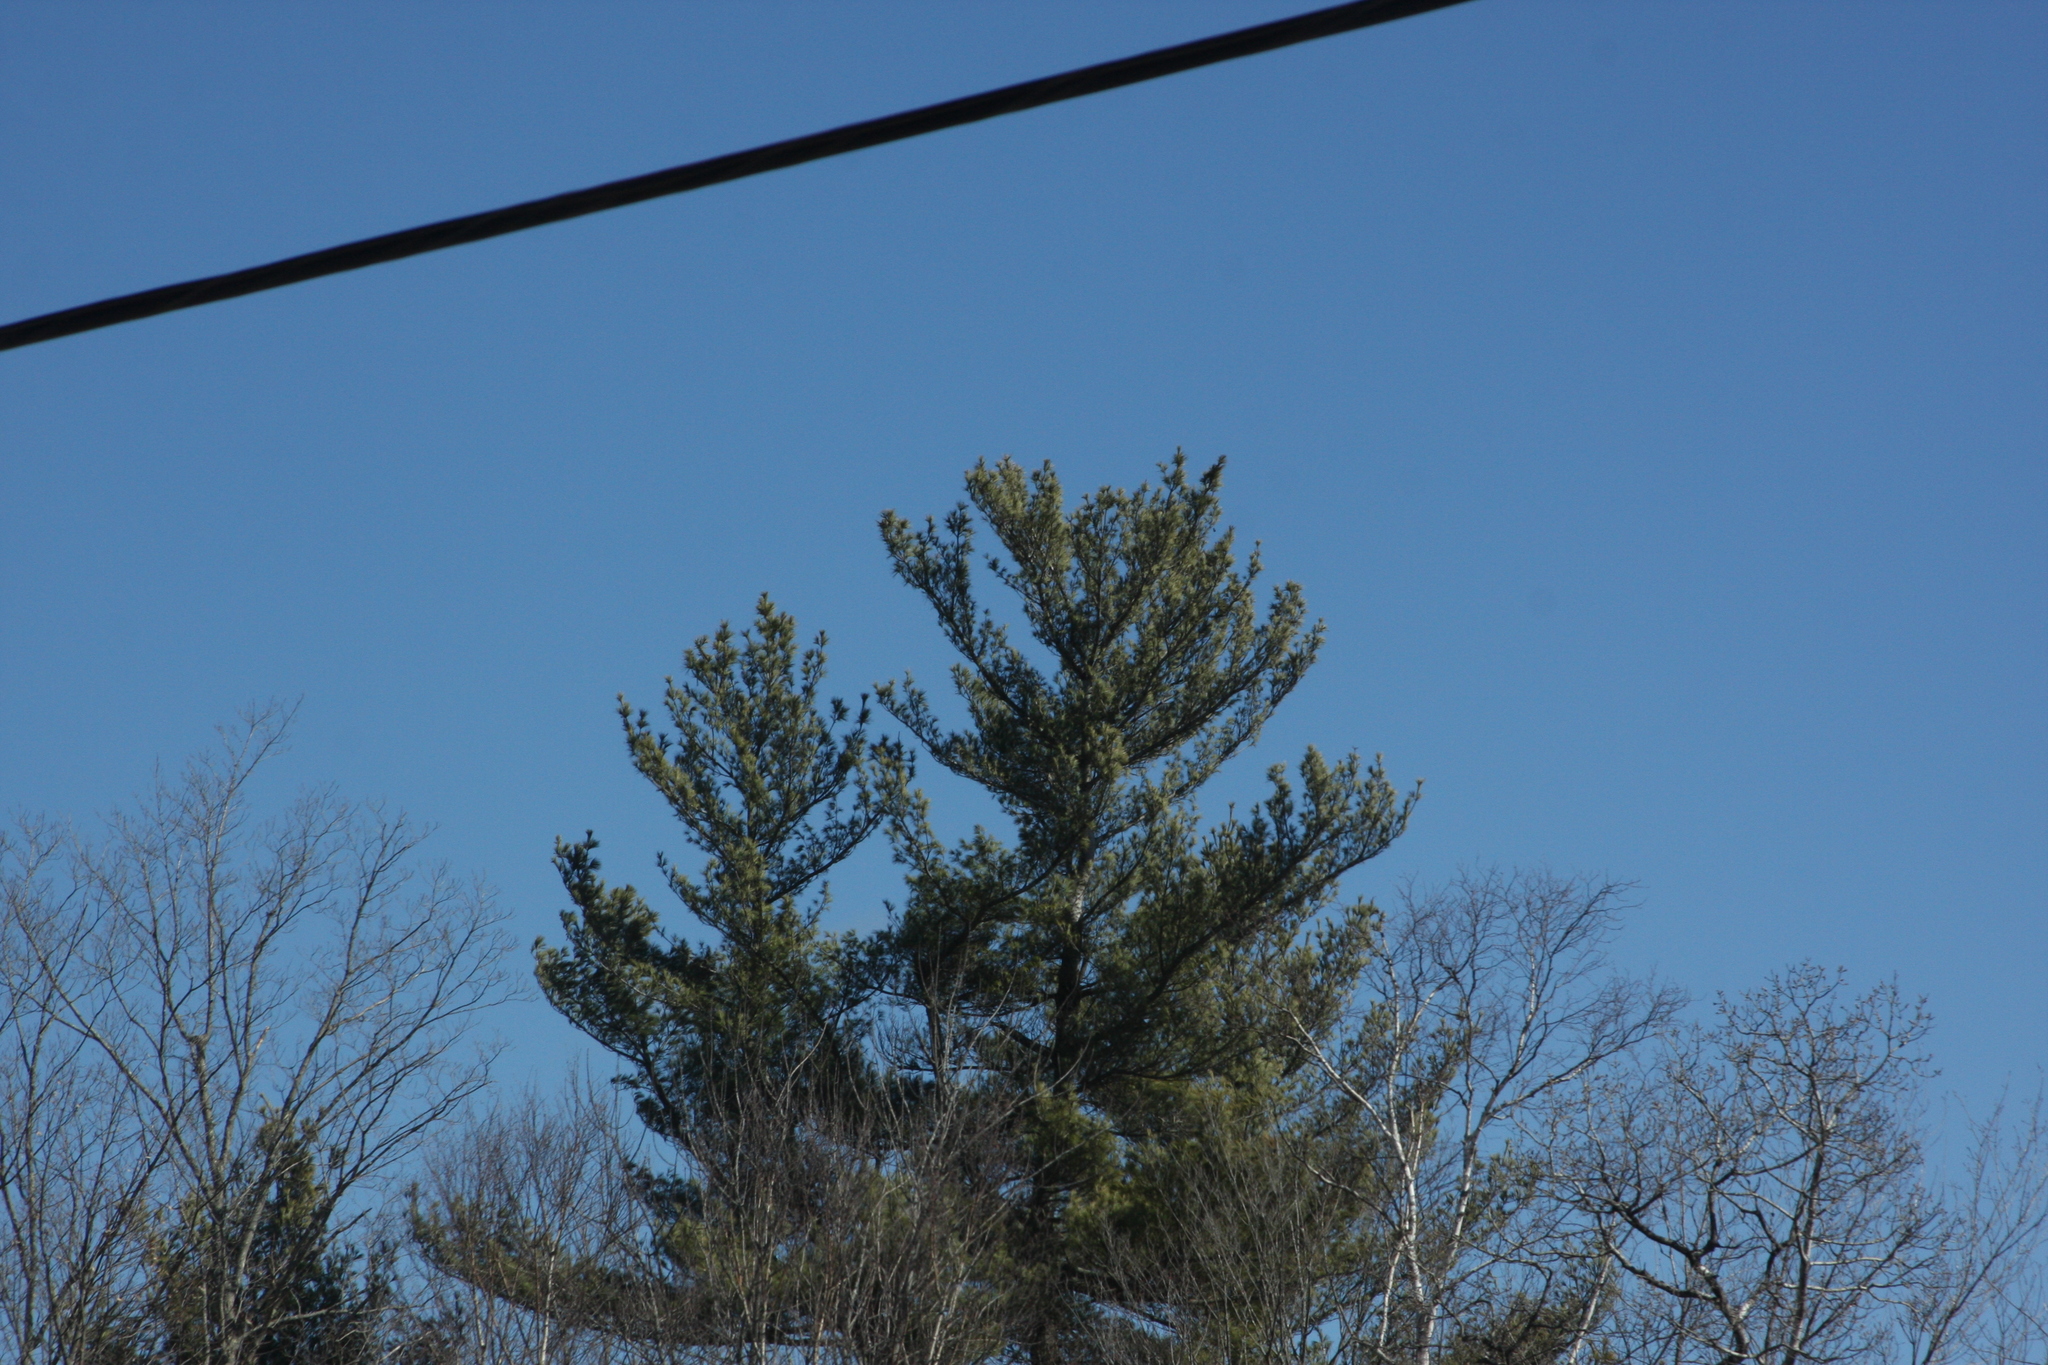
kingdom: Plantae
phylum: Tracheophyta
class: Pinopsida
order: Pinales
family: Pinaceae
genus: Pinus
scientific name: Pinus strobus
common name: Weymouth pine
